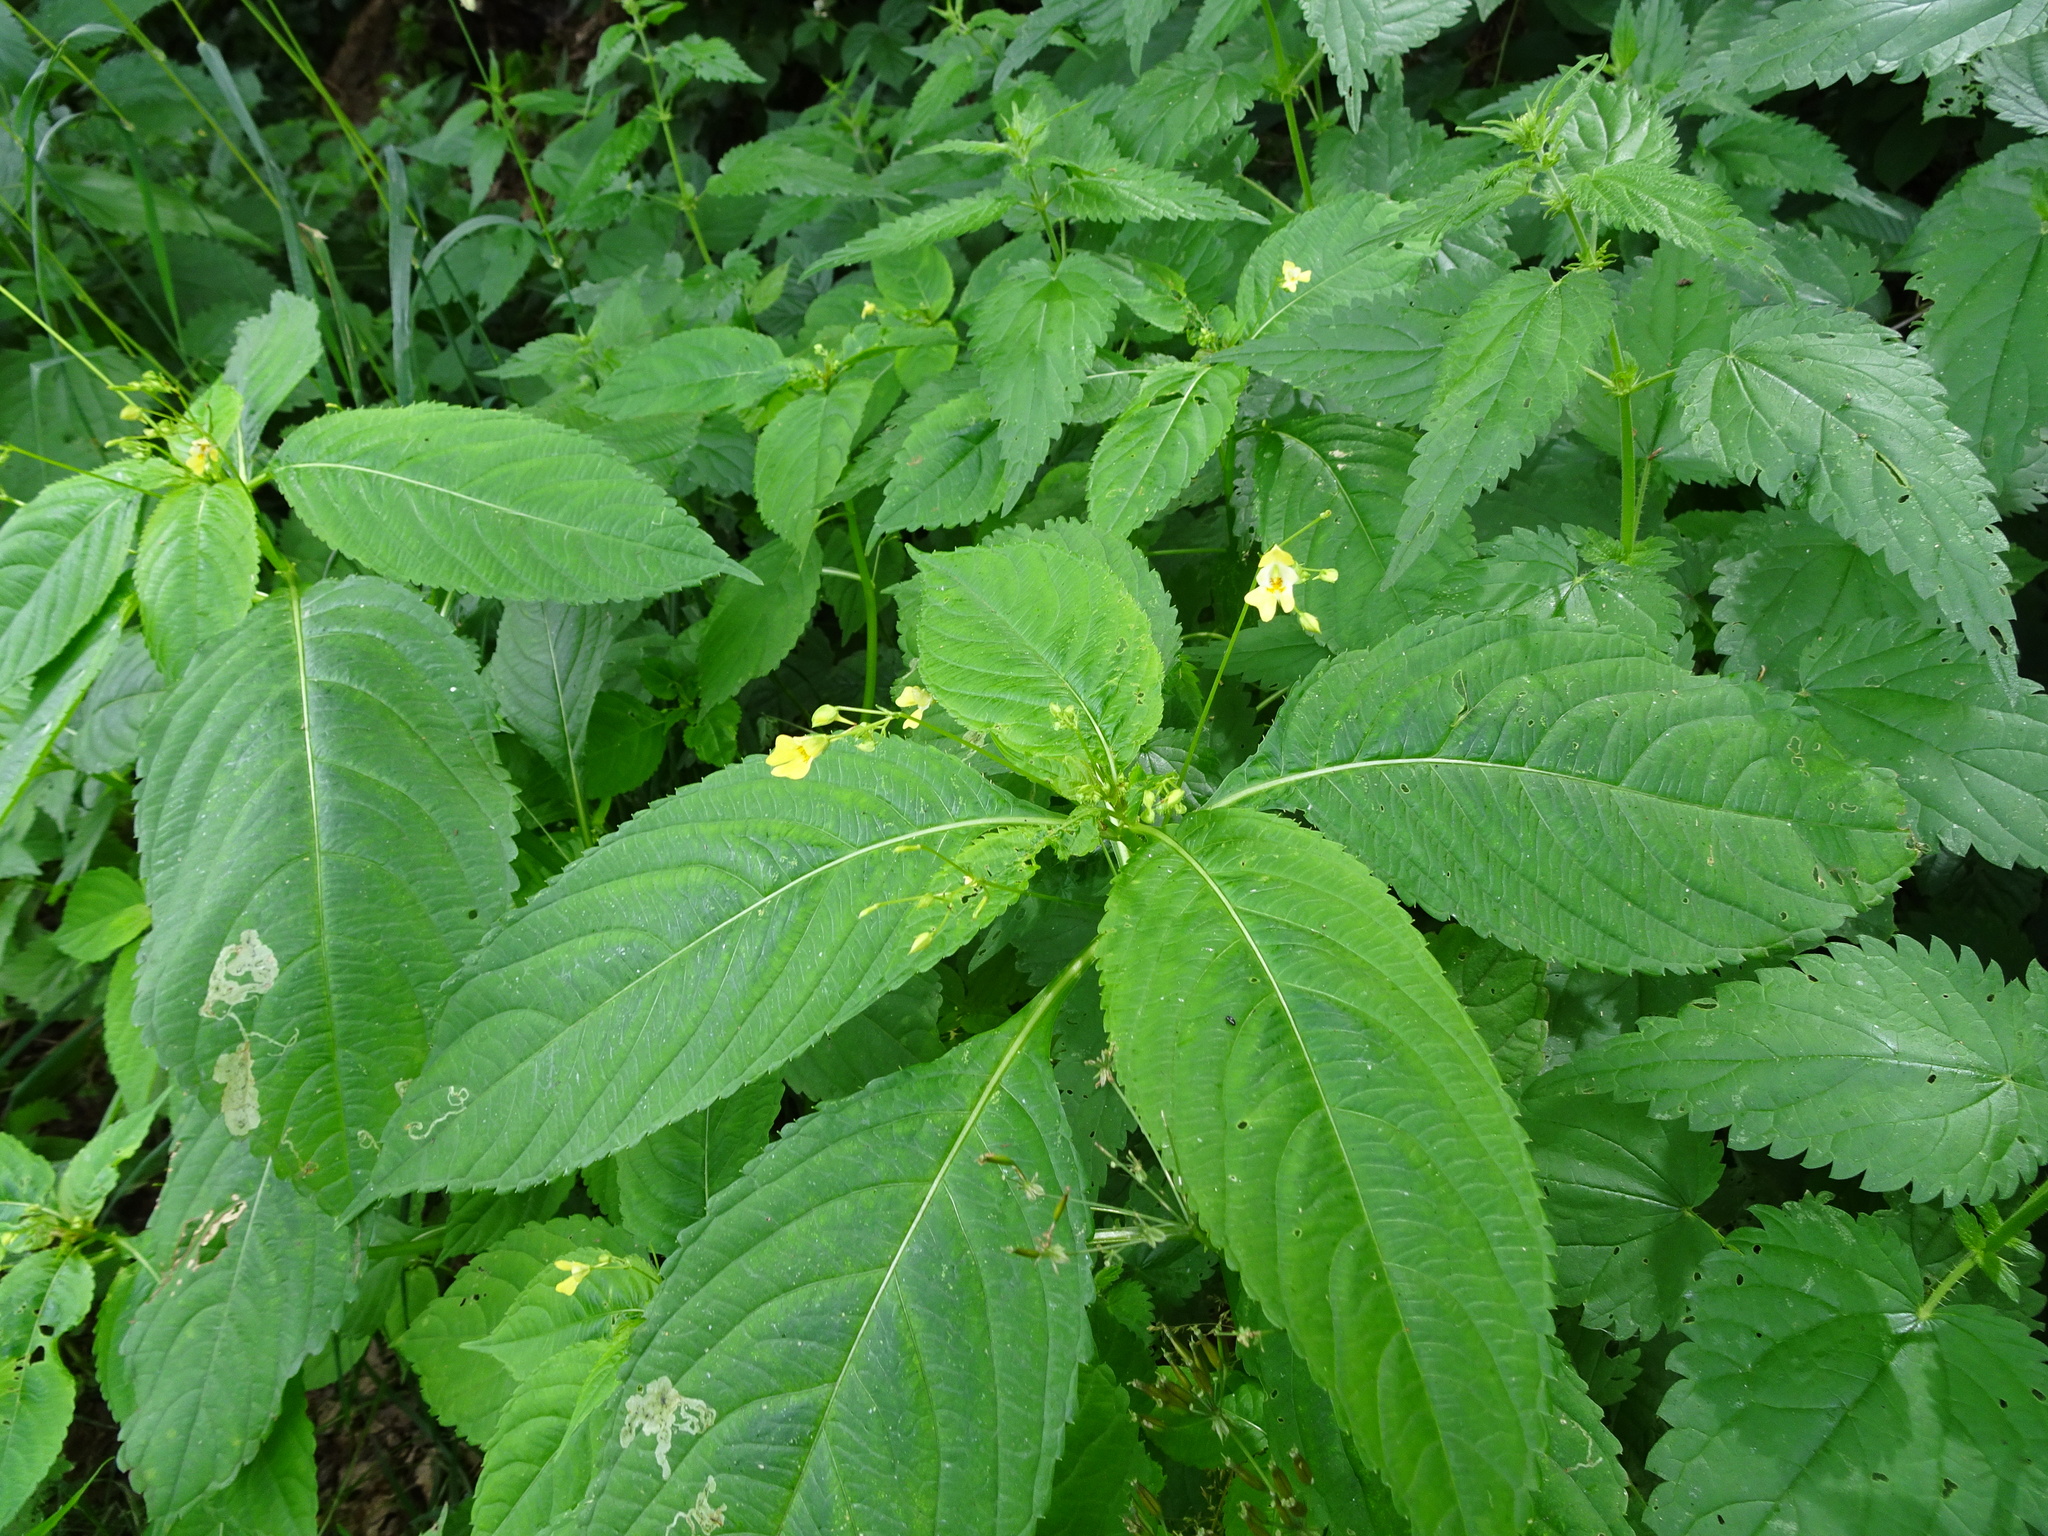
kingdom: Plantae
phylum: Tracheophyta
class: Magnoliopsida
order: Ericales
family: Balsaminaceae
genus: Impatiens
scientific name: Impatiens parviflora
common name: Small balsam
